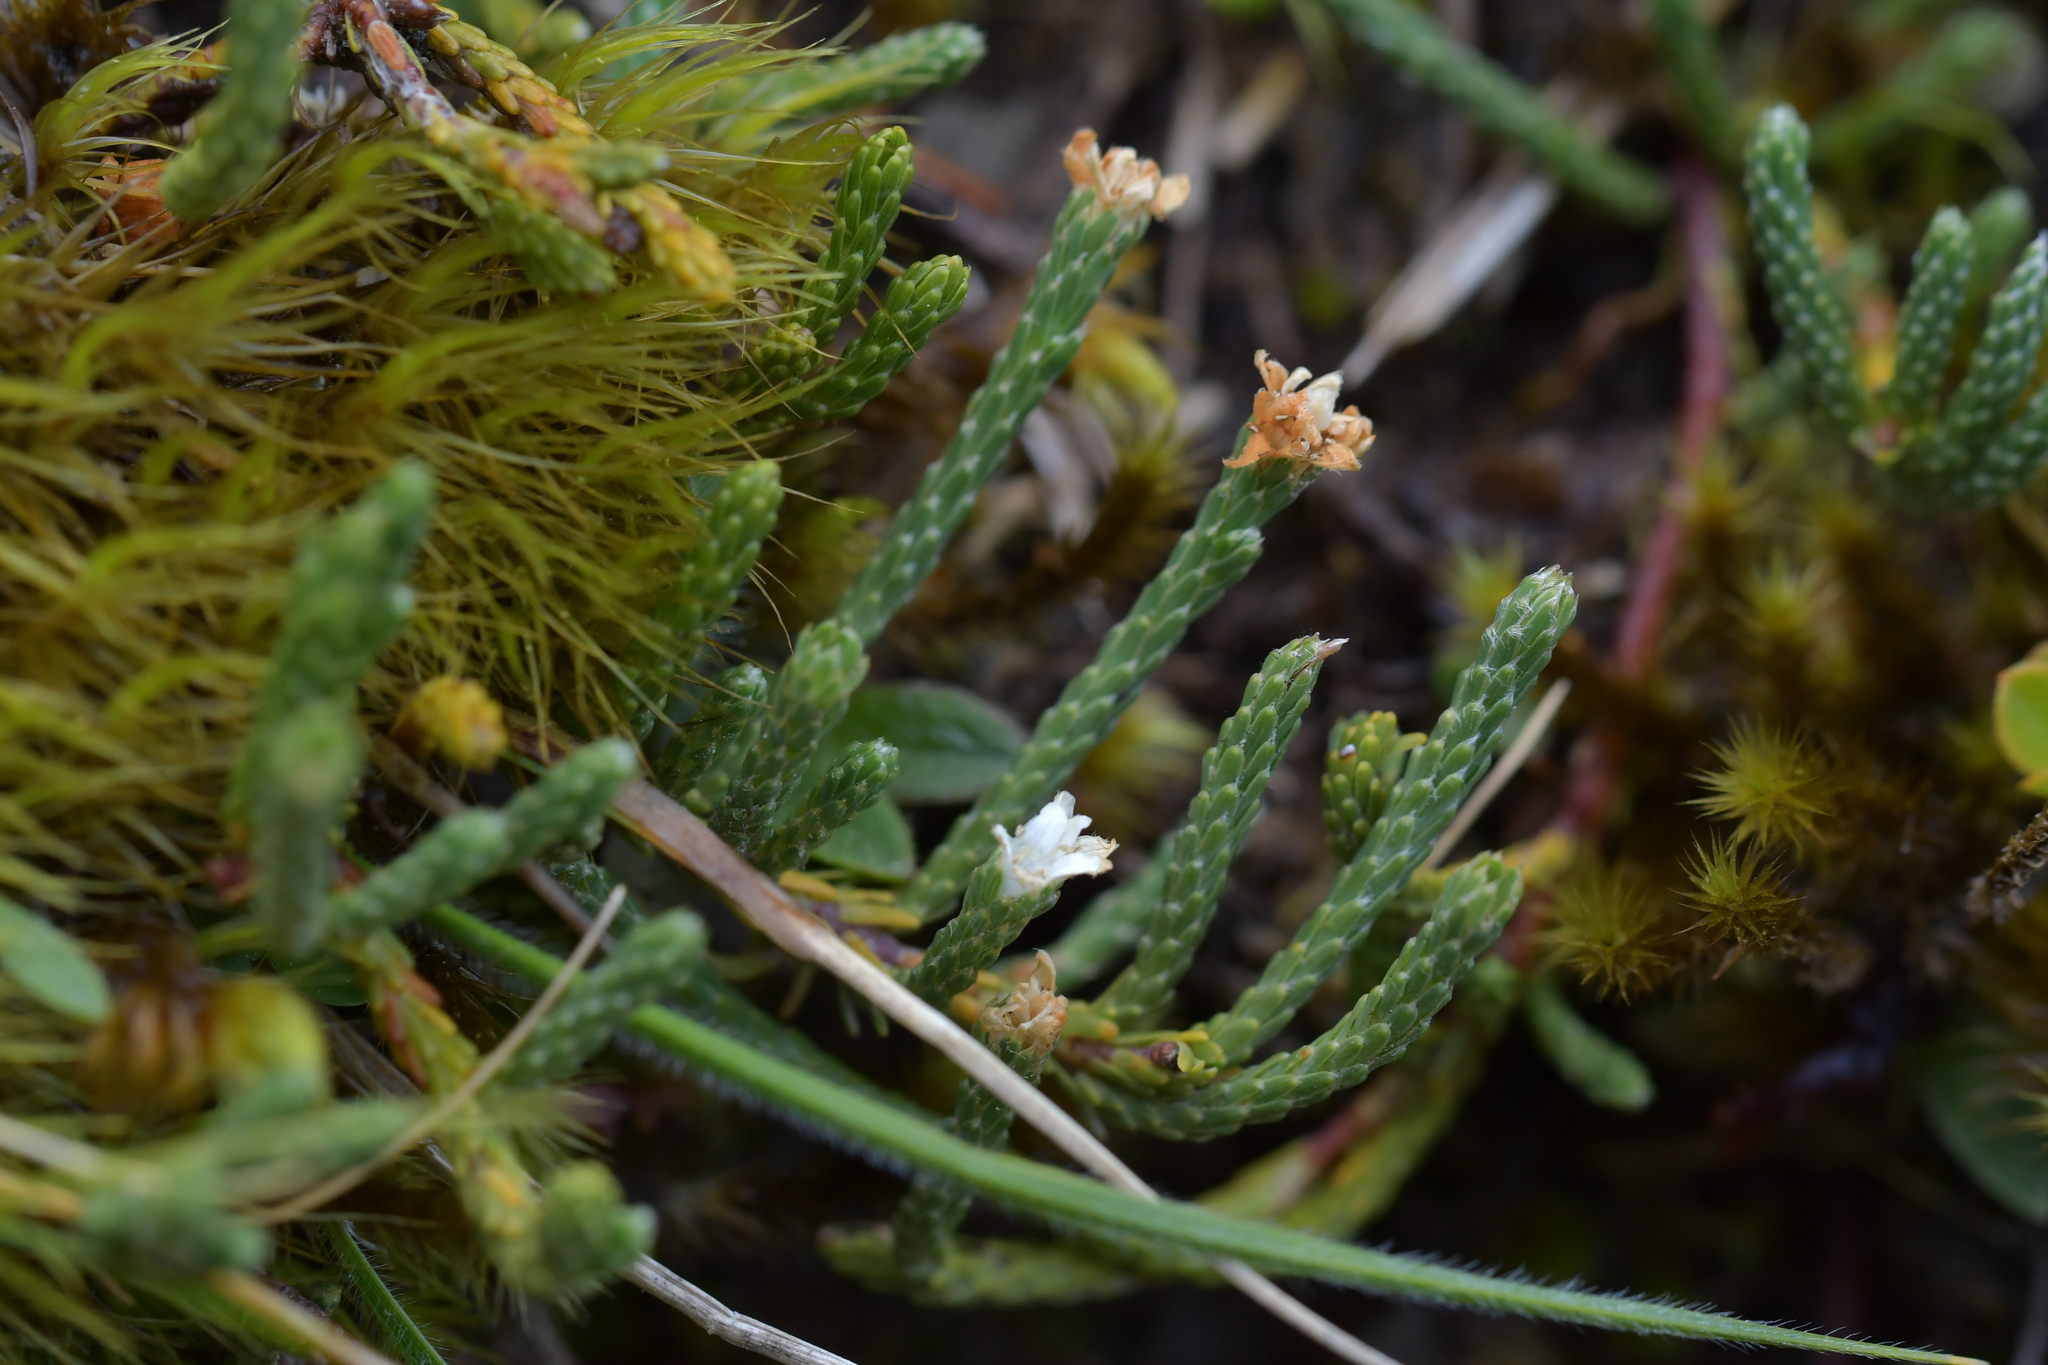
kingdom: Plantae
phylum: Tracheophyta
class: Magnoliopsida
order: Malvales
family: Thymelaeaceae
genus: Kelleria
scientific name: Kelleria dieffenbachii
